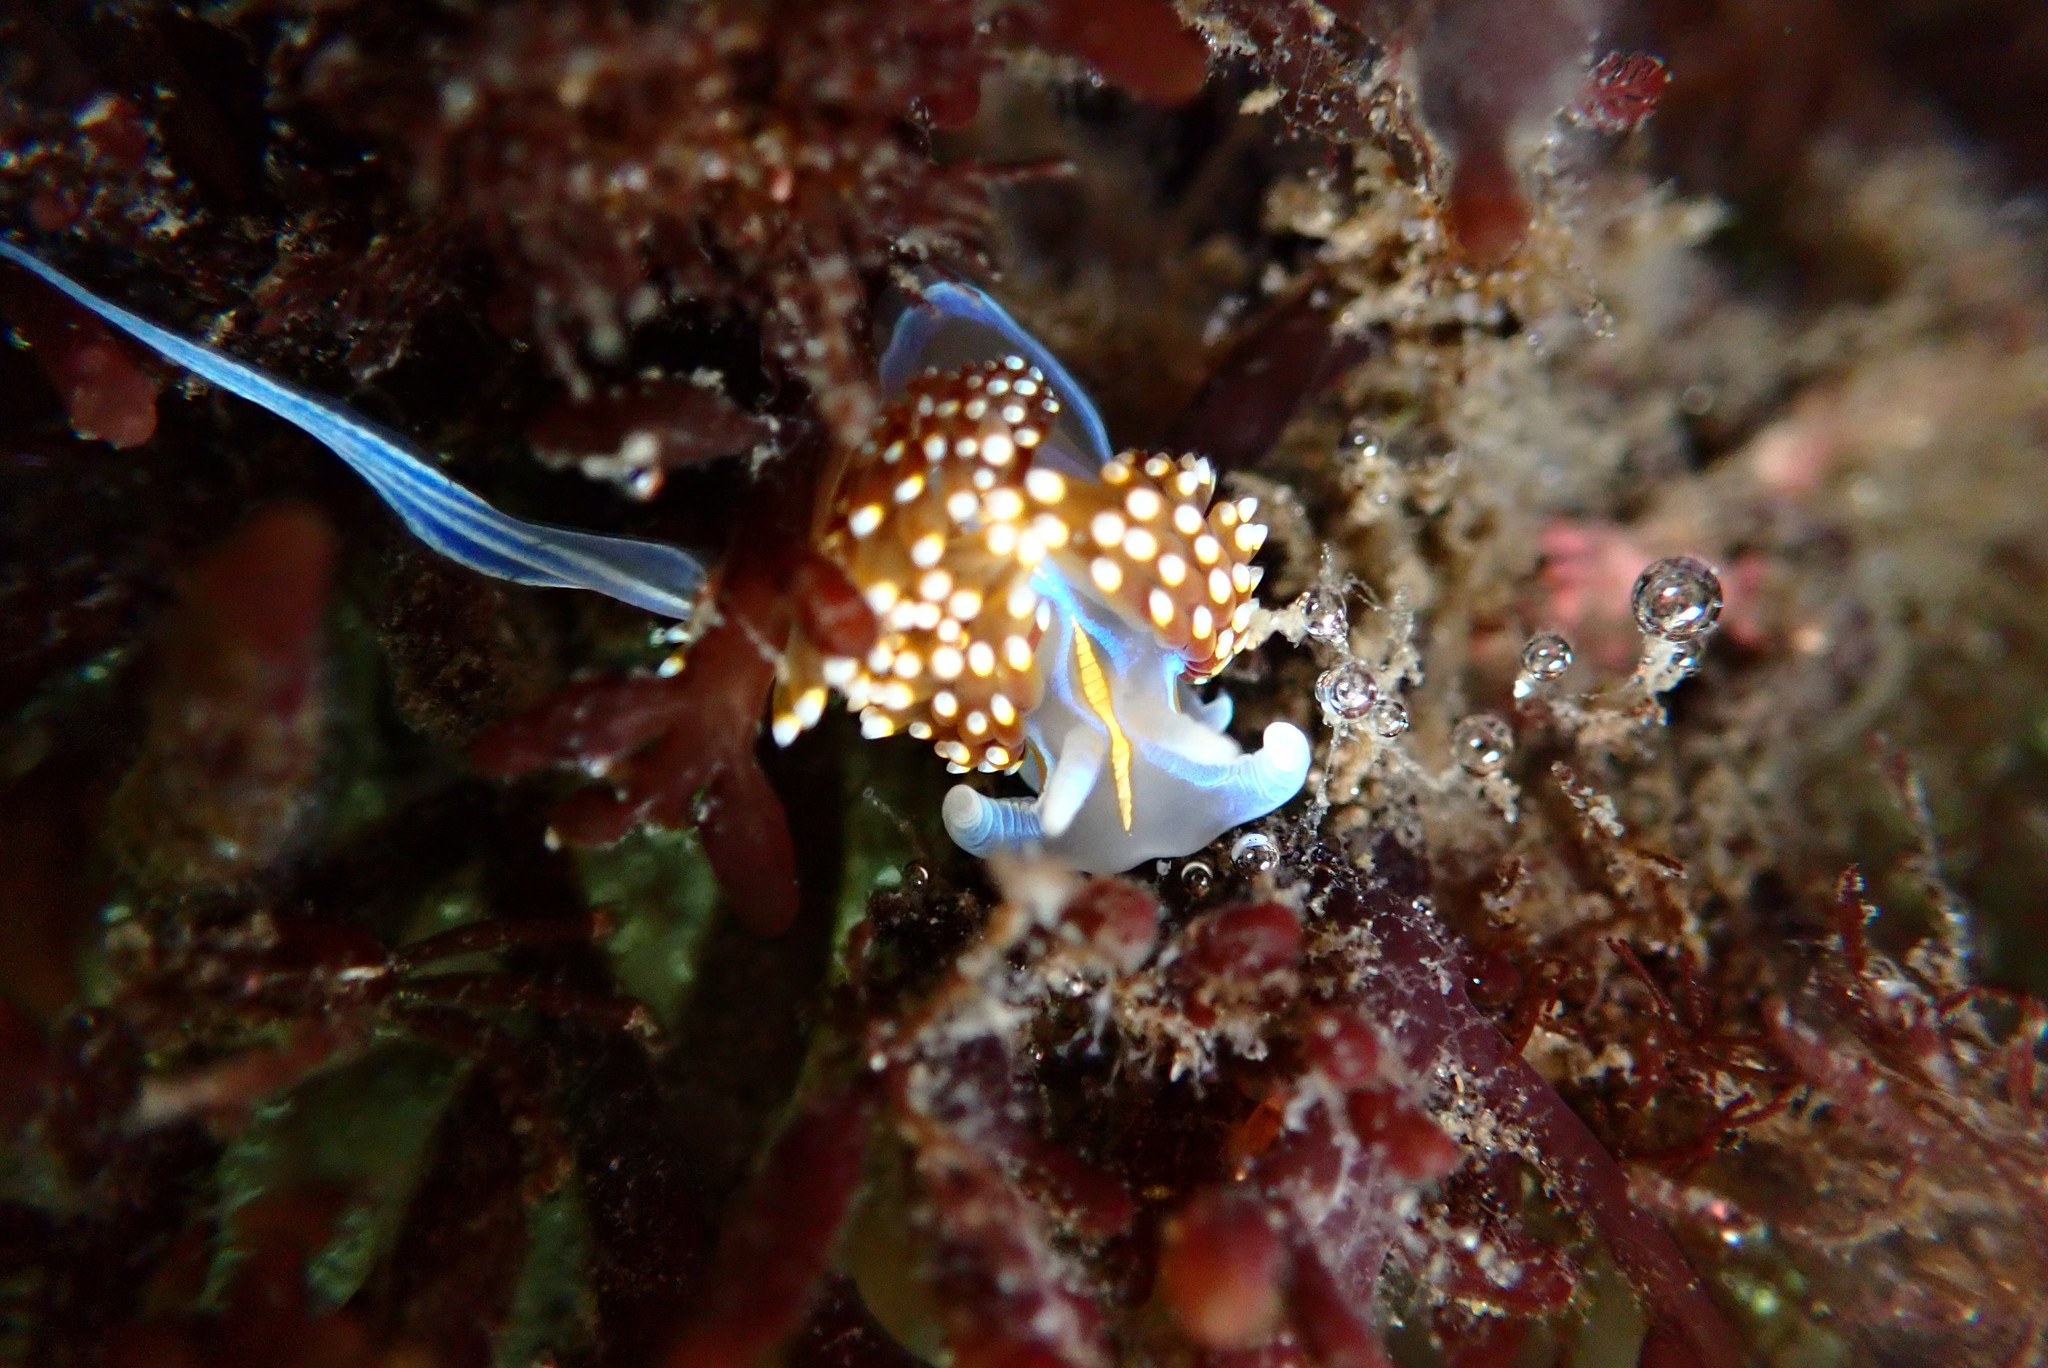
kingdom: Animalia
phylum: Mollusca
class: Gastropoda
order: Nudibranchia
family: Myrrhinidae
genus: Hermissenda
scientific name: Hermissenda opalescens
